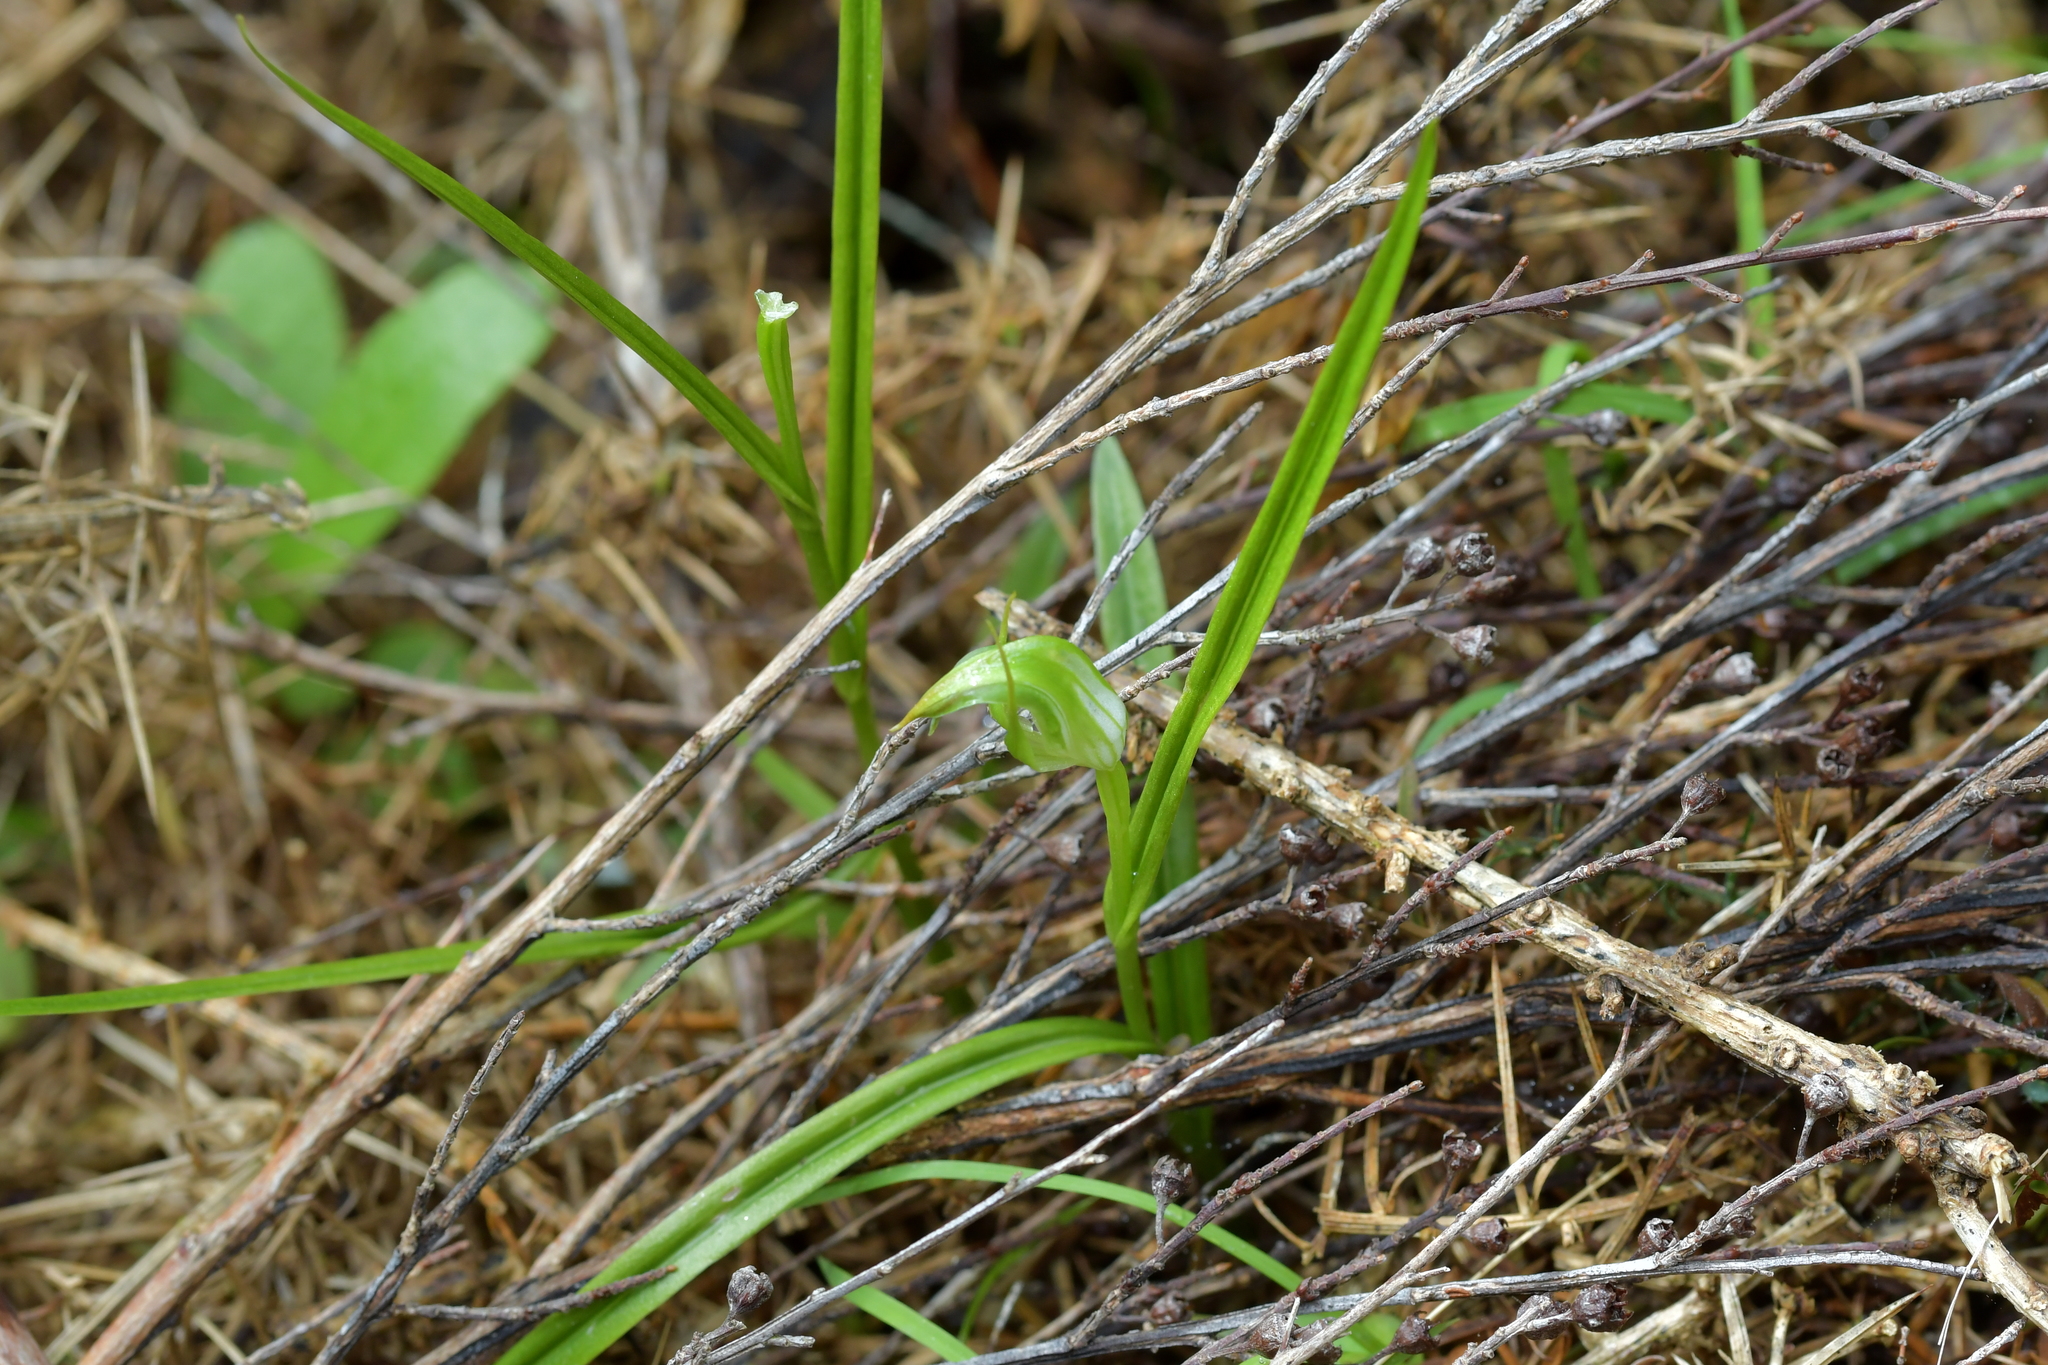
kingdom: Plantae
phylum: Tracheophyta
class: Liliopsida
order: Asparagales
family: Orchidaceae
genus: Pterostylis
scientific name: Pterostylis graminea
